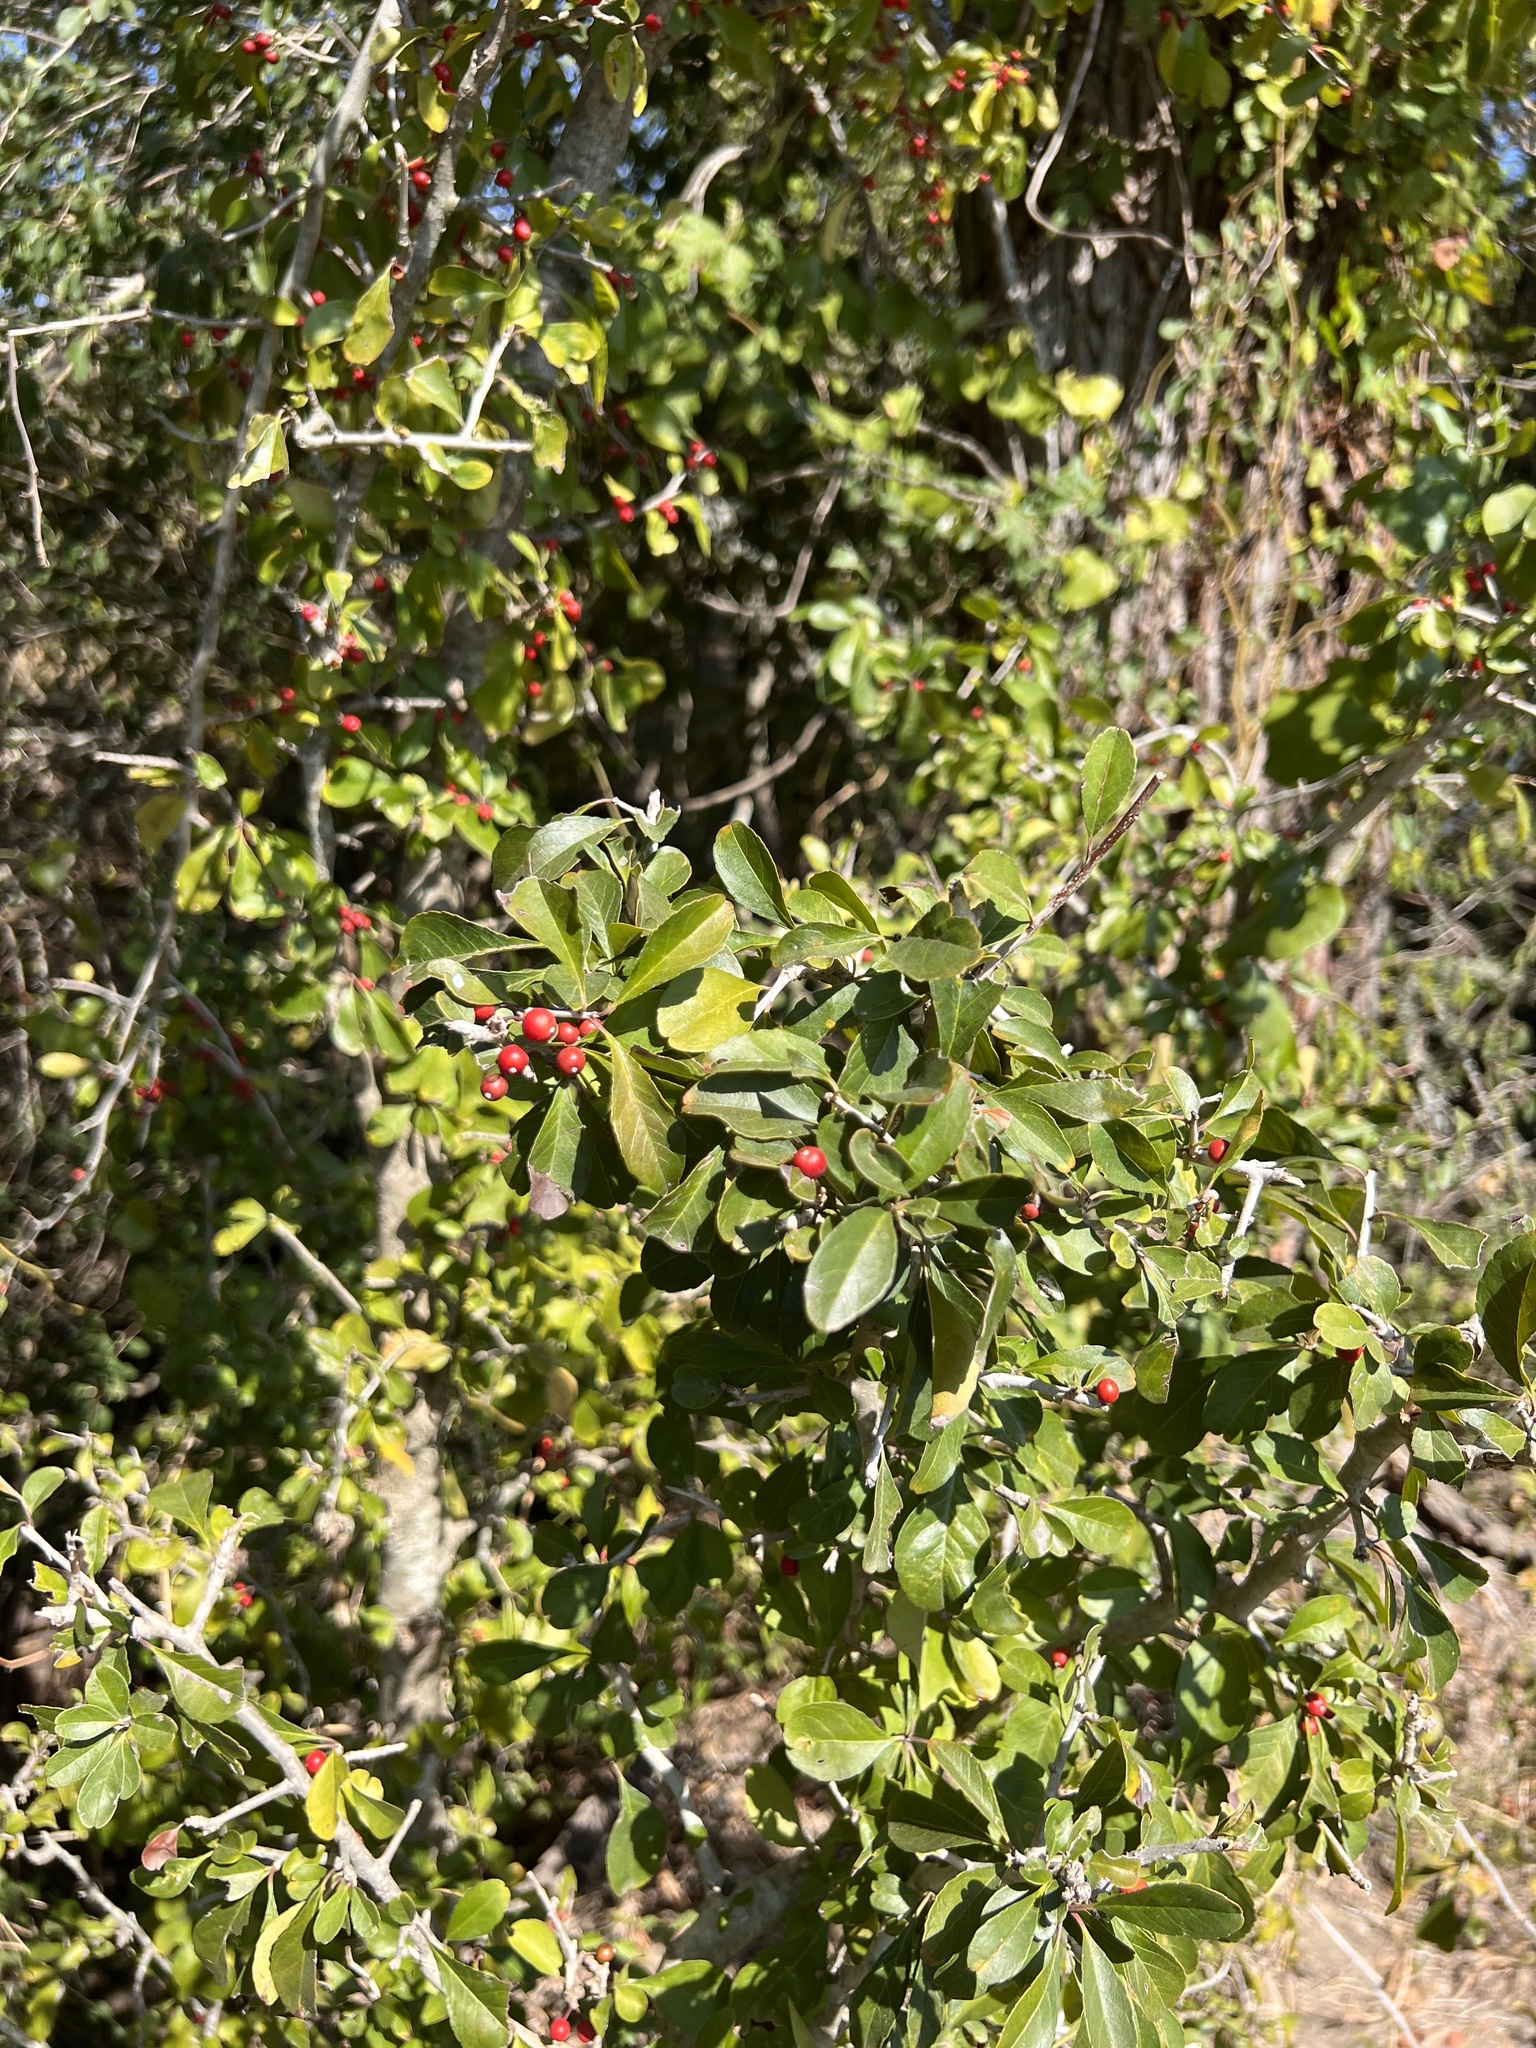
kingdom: Plantae
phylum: Tracheophyta
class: Magnoliopsida
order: Aquifoliales
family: Aquifoliaceae
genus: Ilex
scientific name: Ilex decidua
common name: Possum-haw
